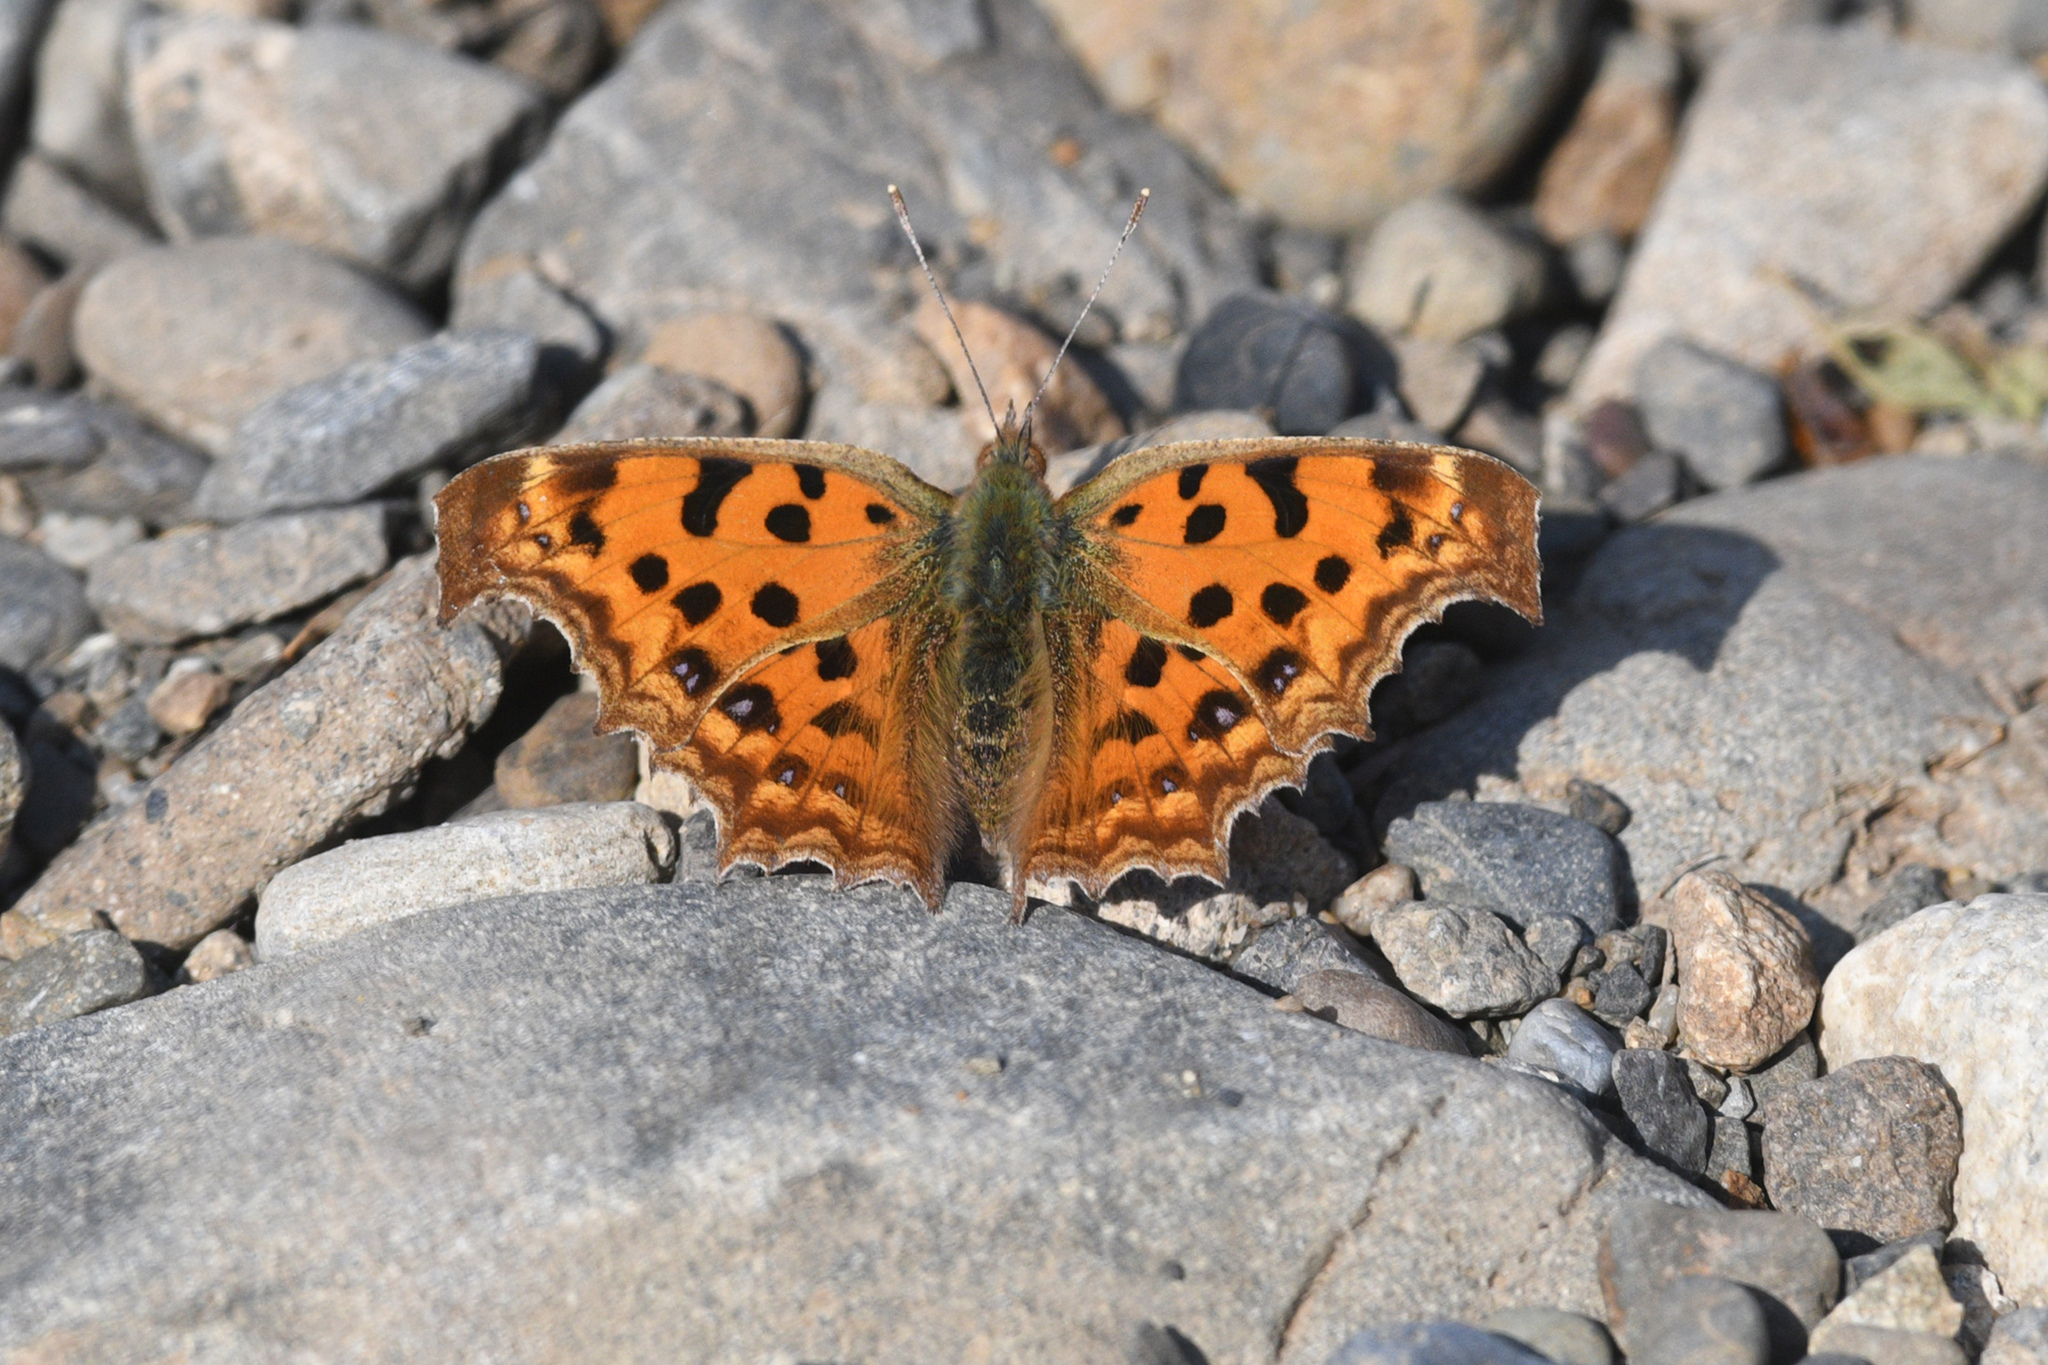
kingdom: Animalia
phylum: Arthropoda
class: Insecta
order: Lepidoptera
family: Nymphalidae
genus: Polygonia
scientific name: Polygonia c-aureum
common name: Asian comma
